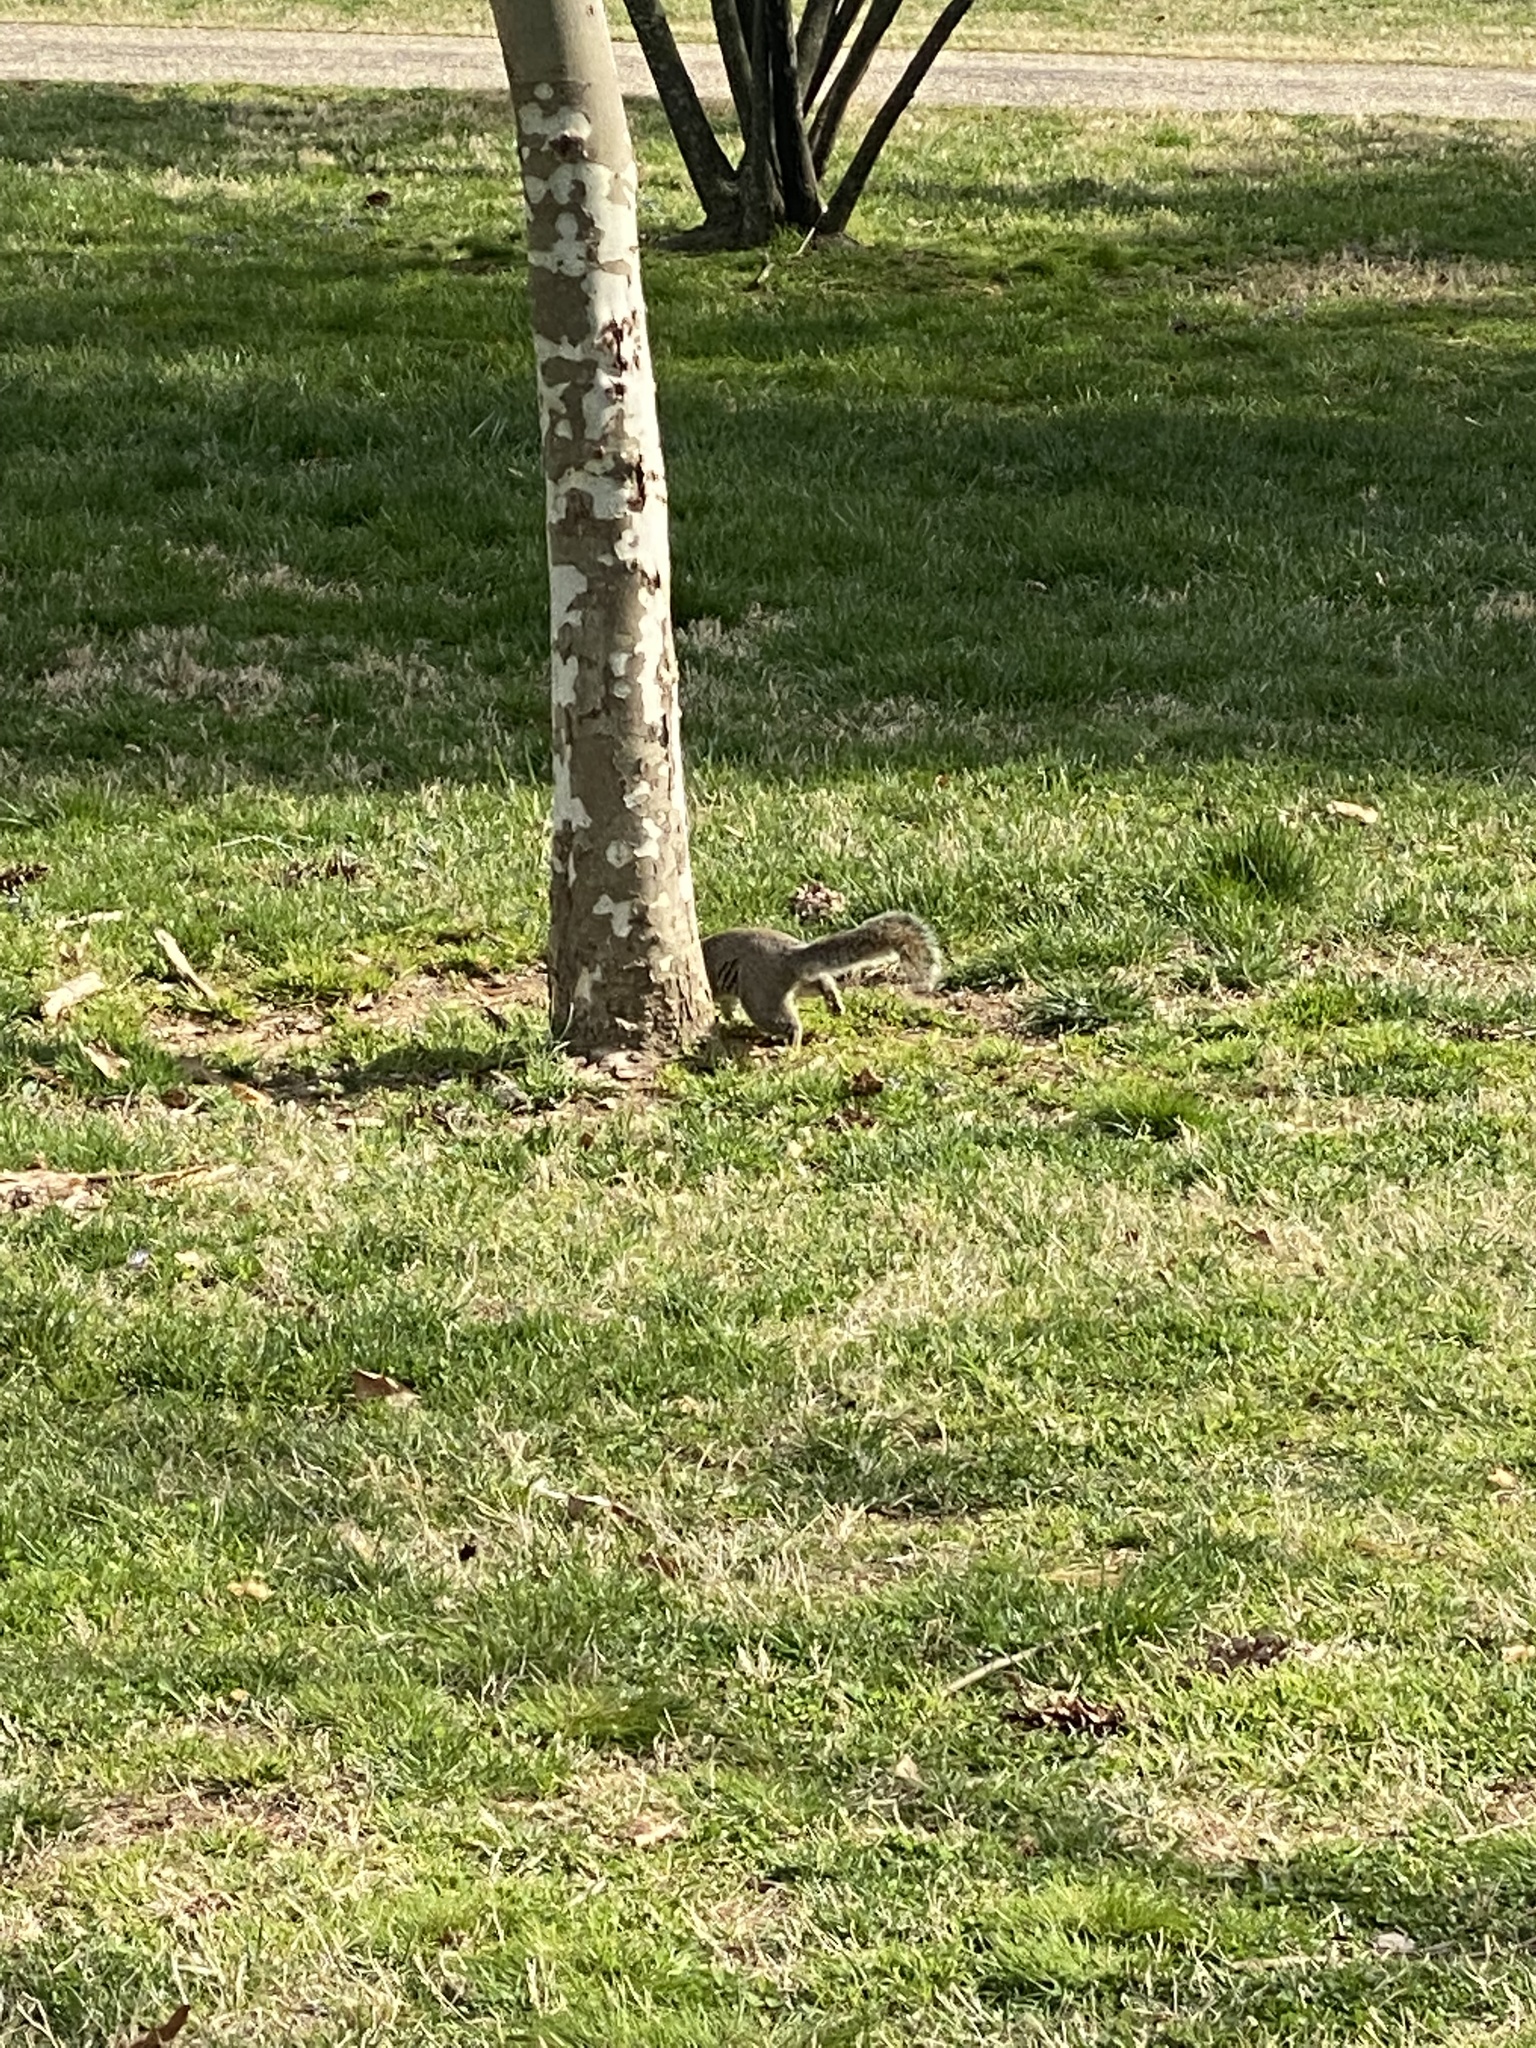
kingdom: Animalia
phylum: Chordata
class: Mammalia
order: Rodentia
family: Sciuridae
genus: Sciurus
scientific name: Sciurus carolinensis
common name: Eastern gray squirrel
